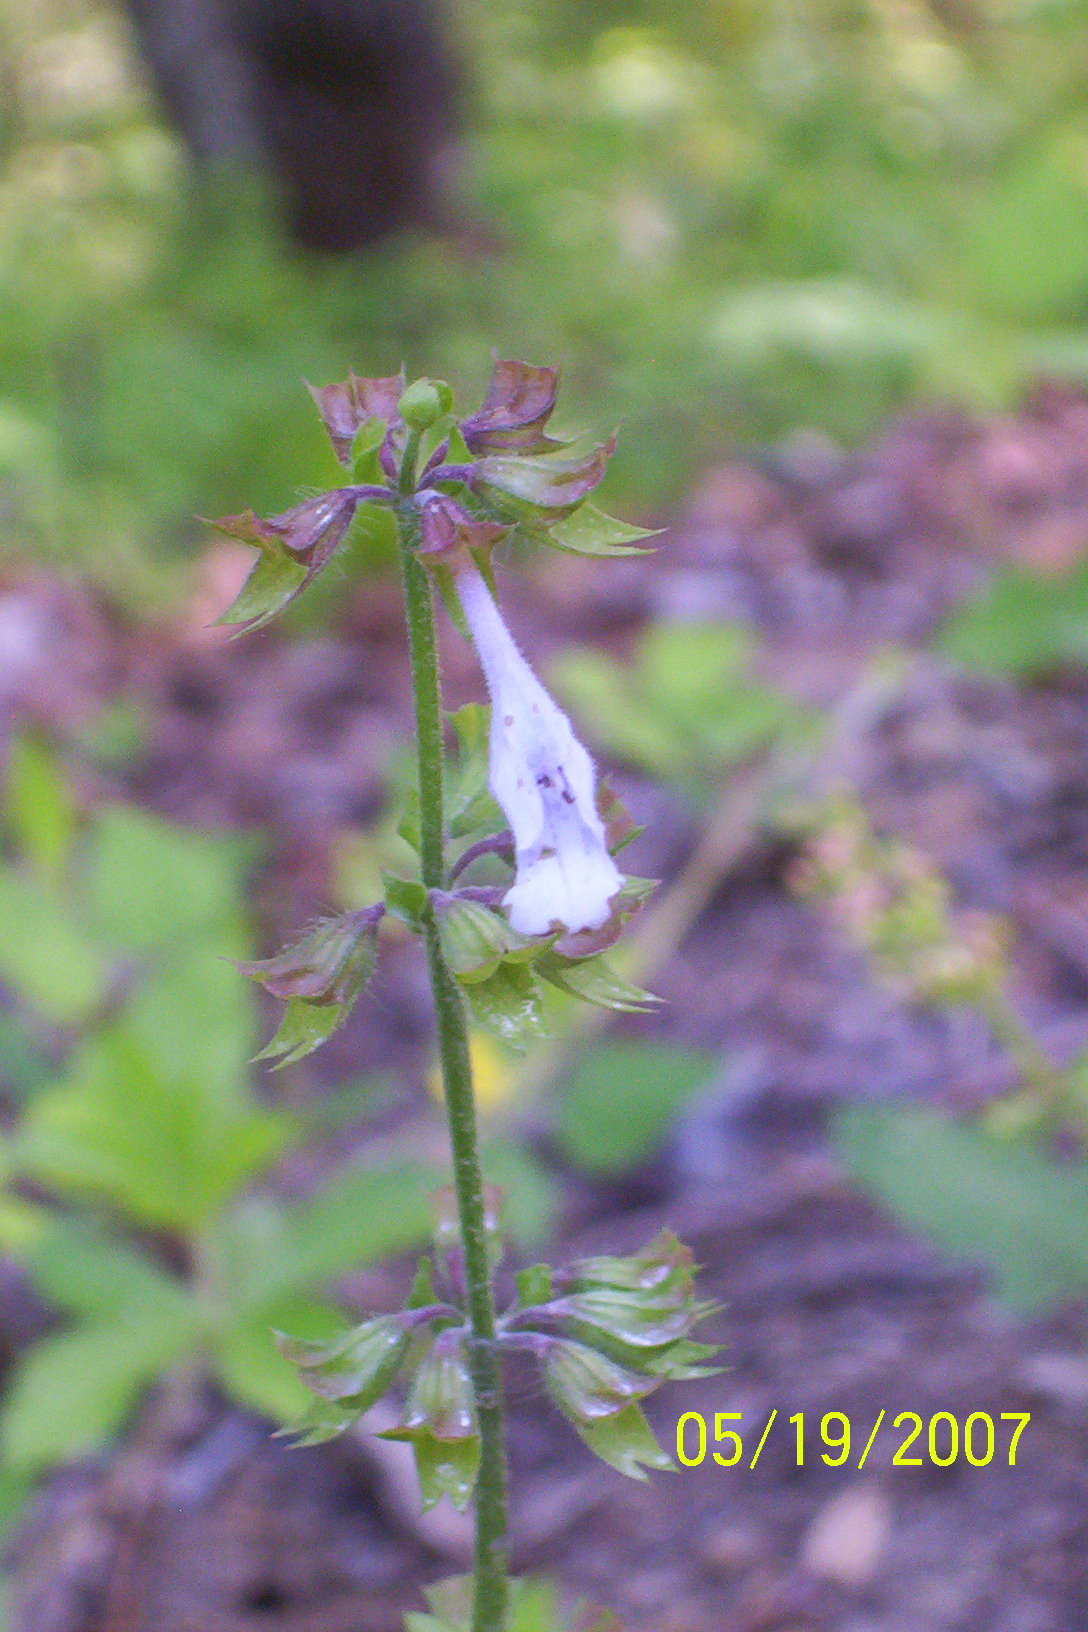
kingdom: Plantae
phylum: Tracheophyta
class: Magnoliopsida
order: Lamiales
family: Lamiaceae
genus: Salvia
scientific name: Salvia lyrata
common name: Cancerweed
